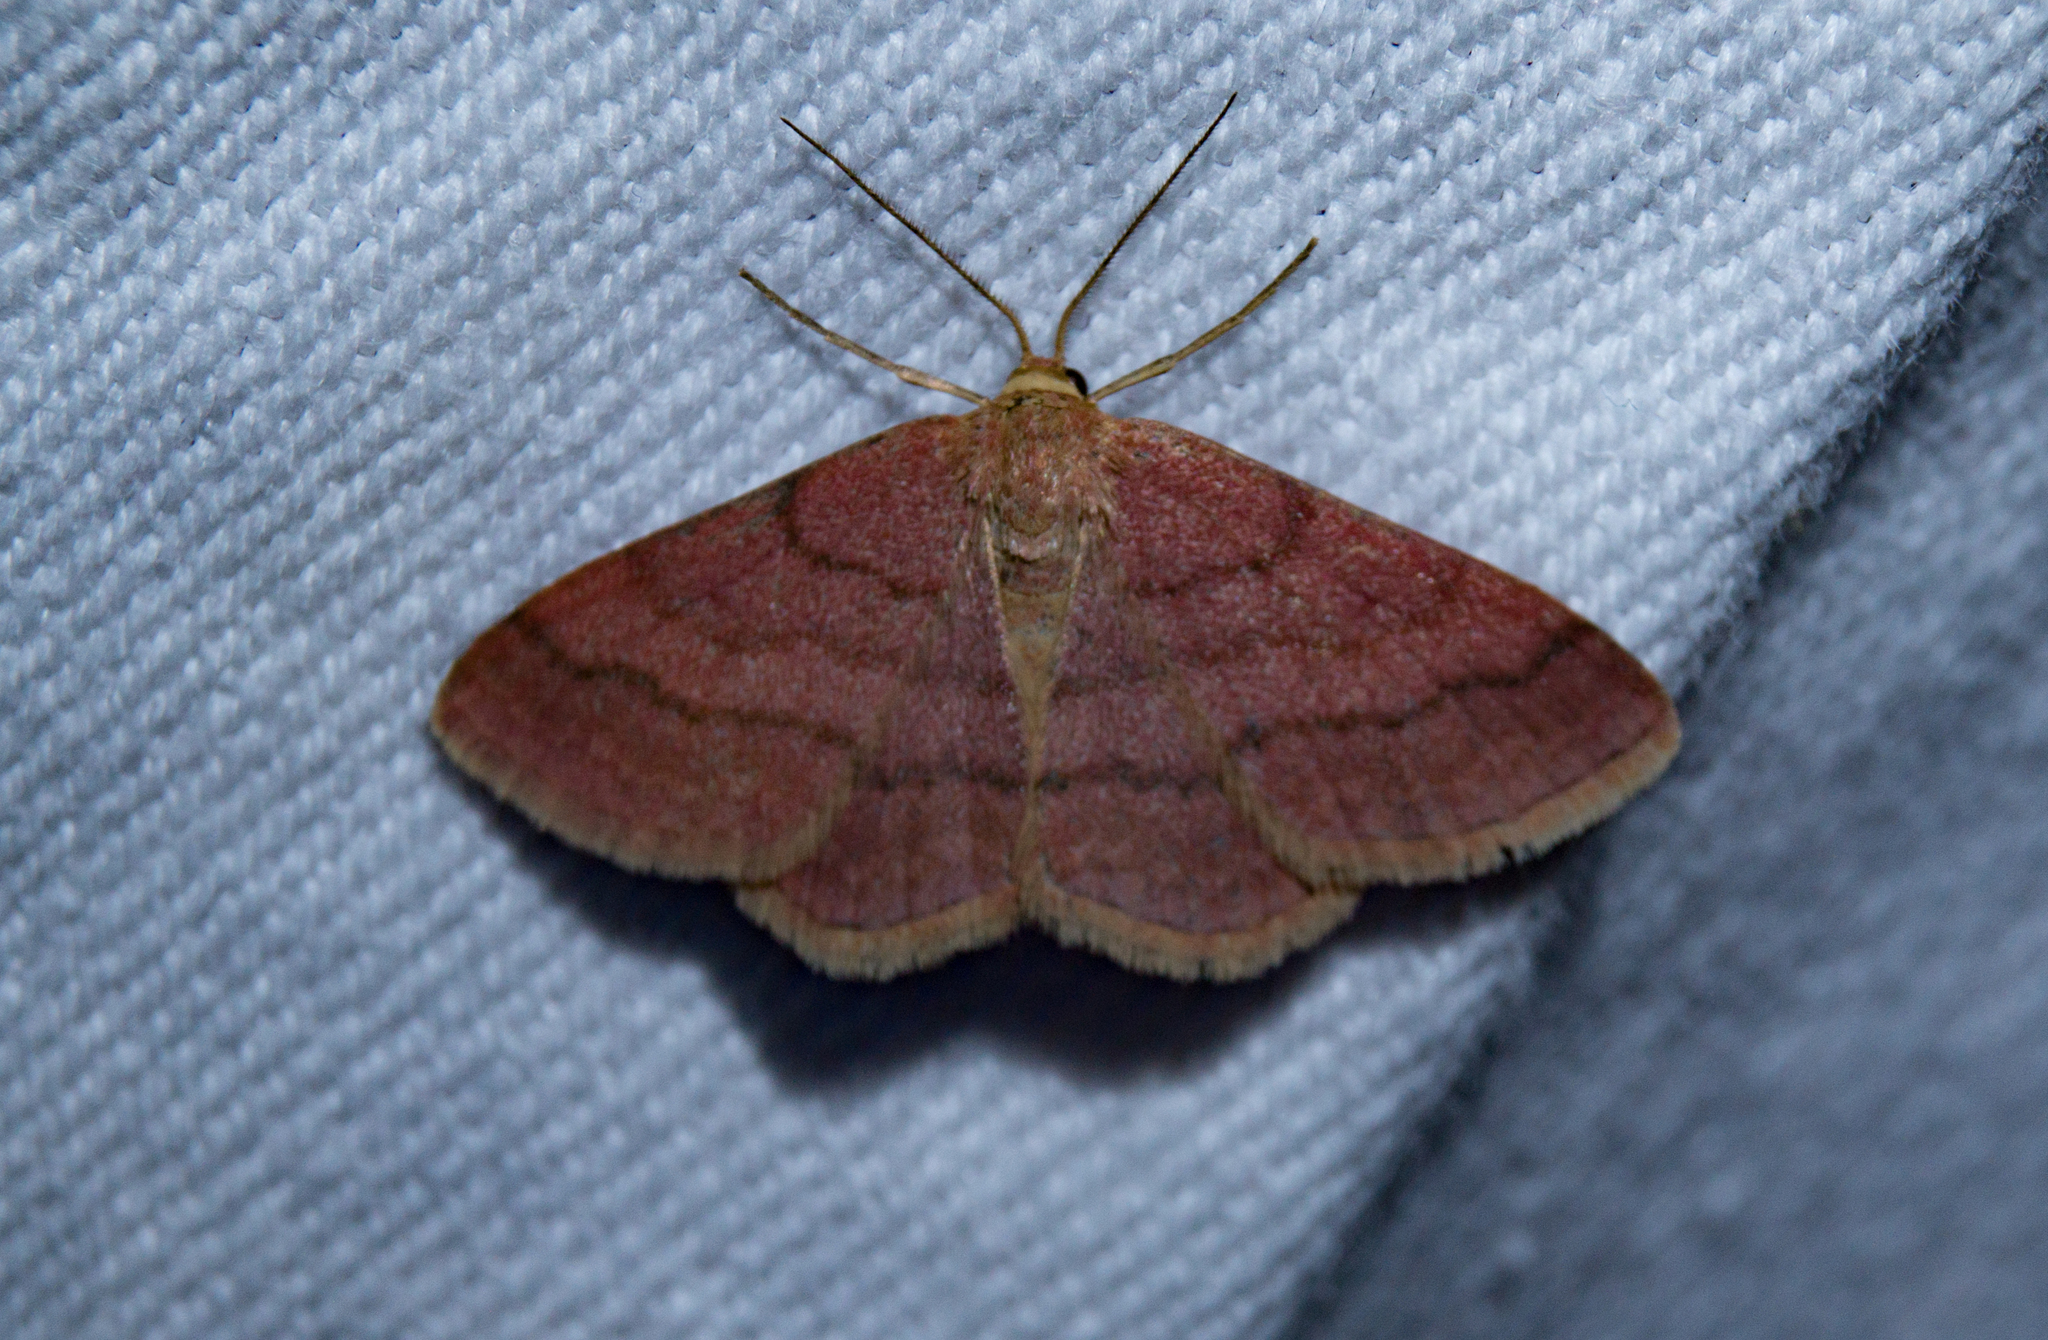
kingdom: Animalia
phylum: Arthropoda
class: Insecta
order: Lepidoptera
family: Geometridae
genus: Scopula
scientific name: Scopula rubiginata
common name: Tawny wave
